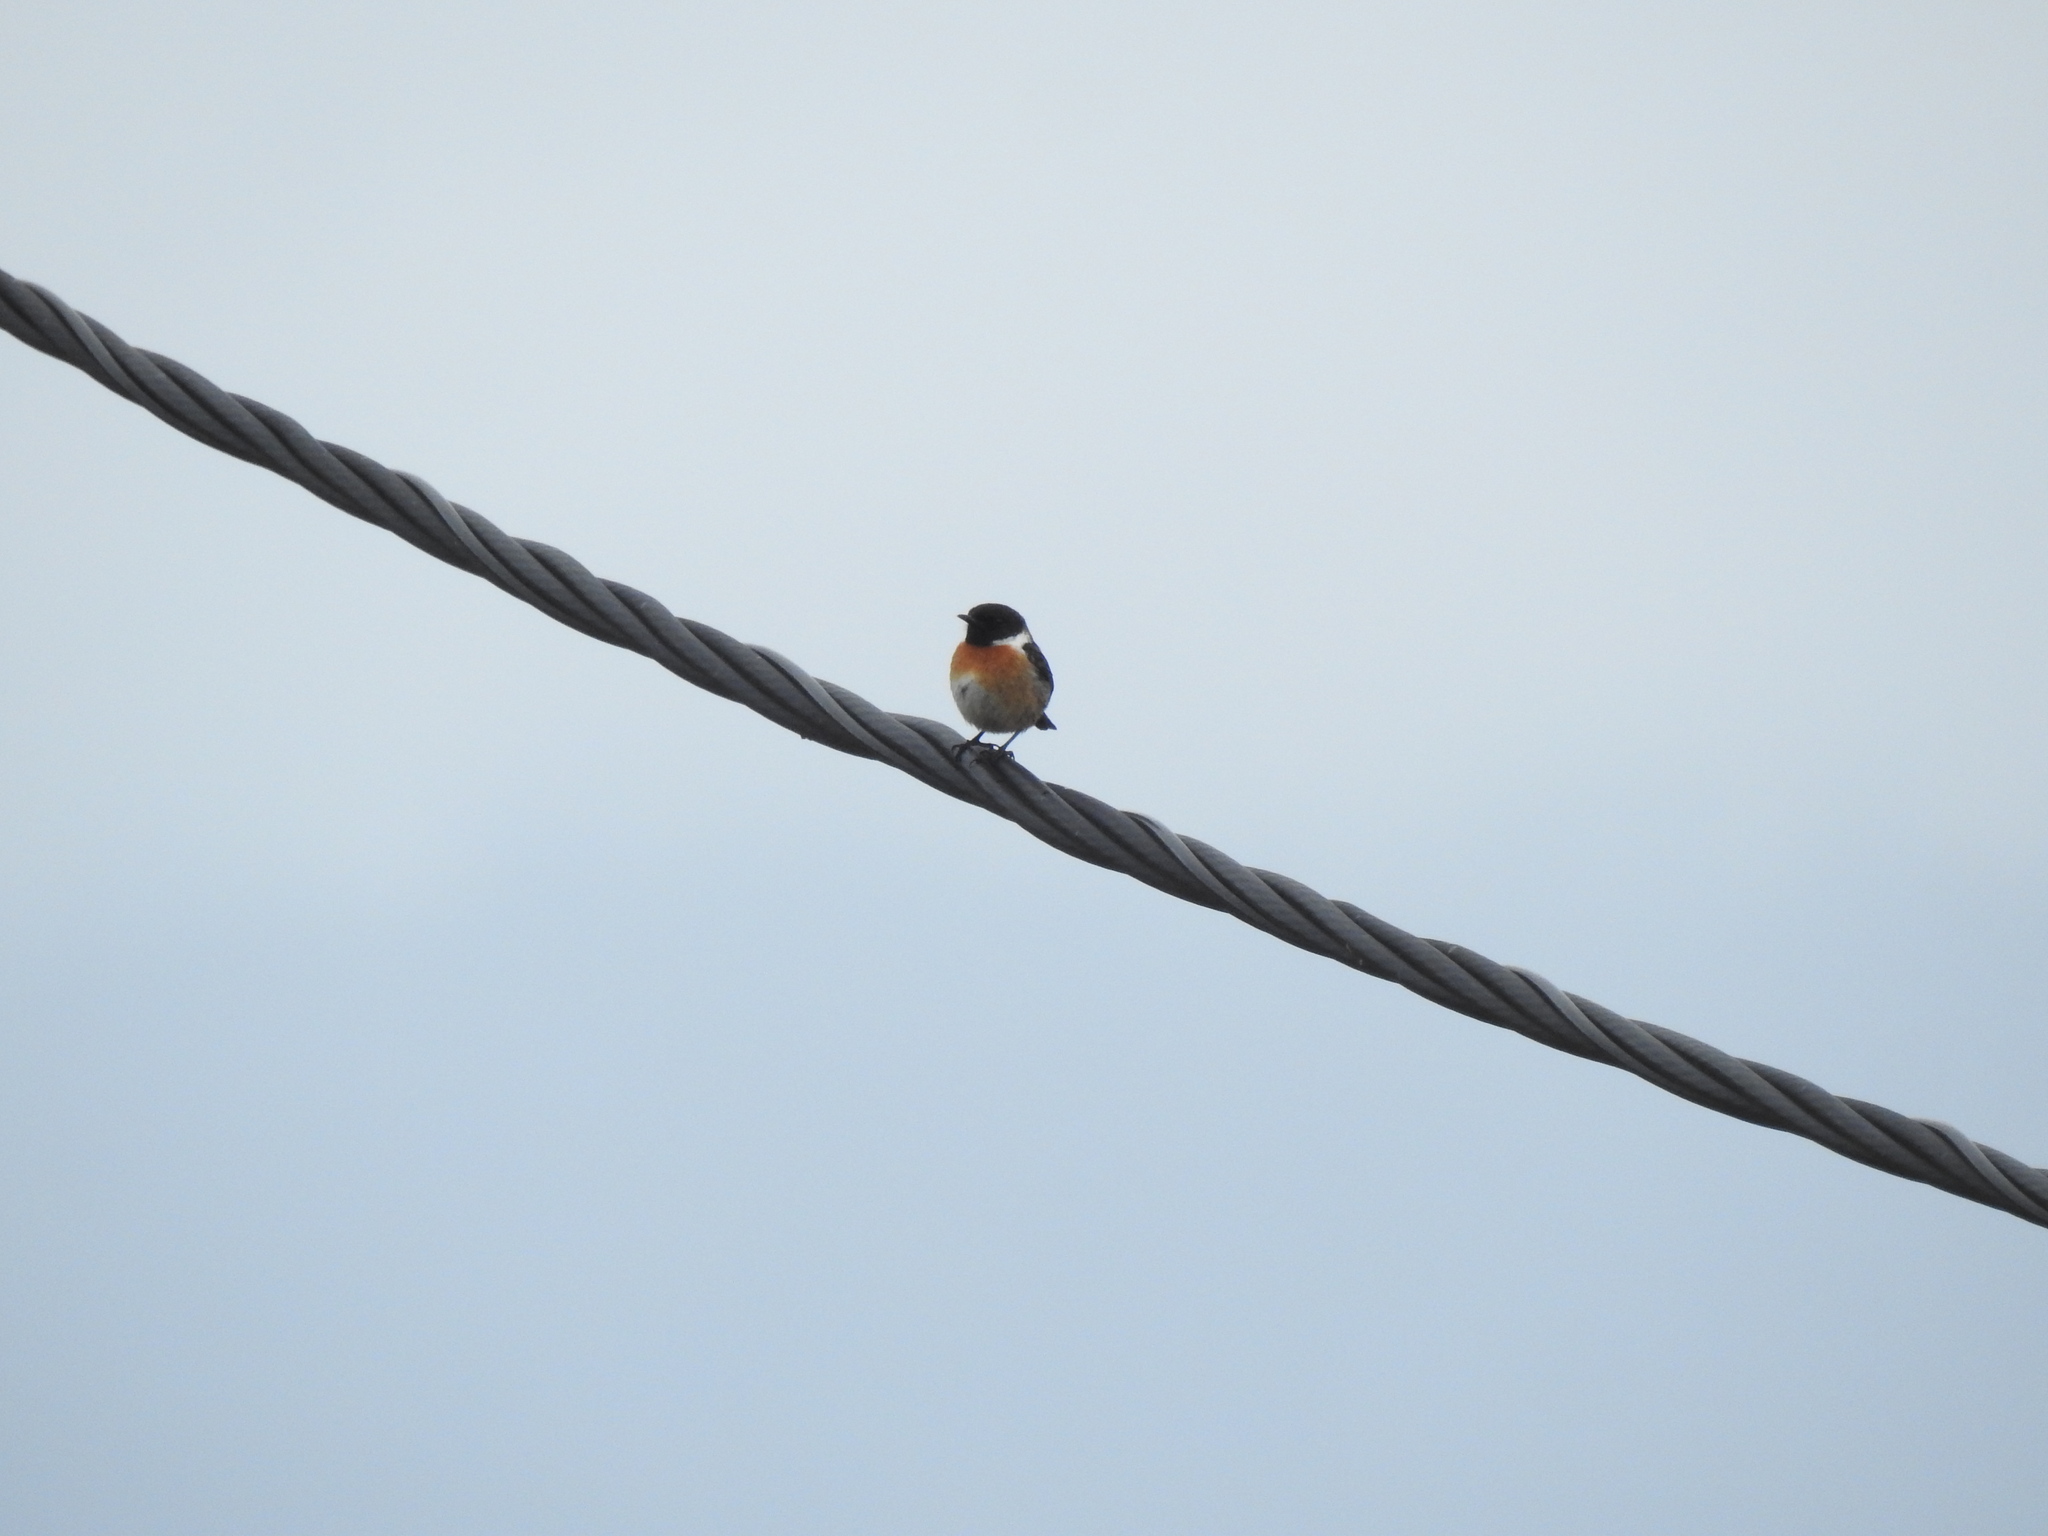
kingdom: Animalia
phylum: Chordata
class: Aves
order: Passeriformes
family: Muscicapidae
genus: Saxicola
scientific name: Saxicola rubicola
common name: European stonechat
